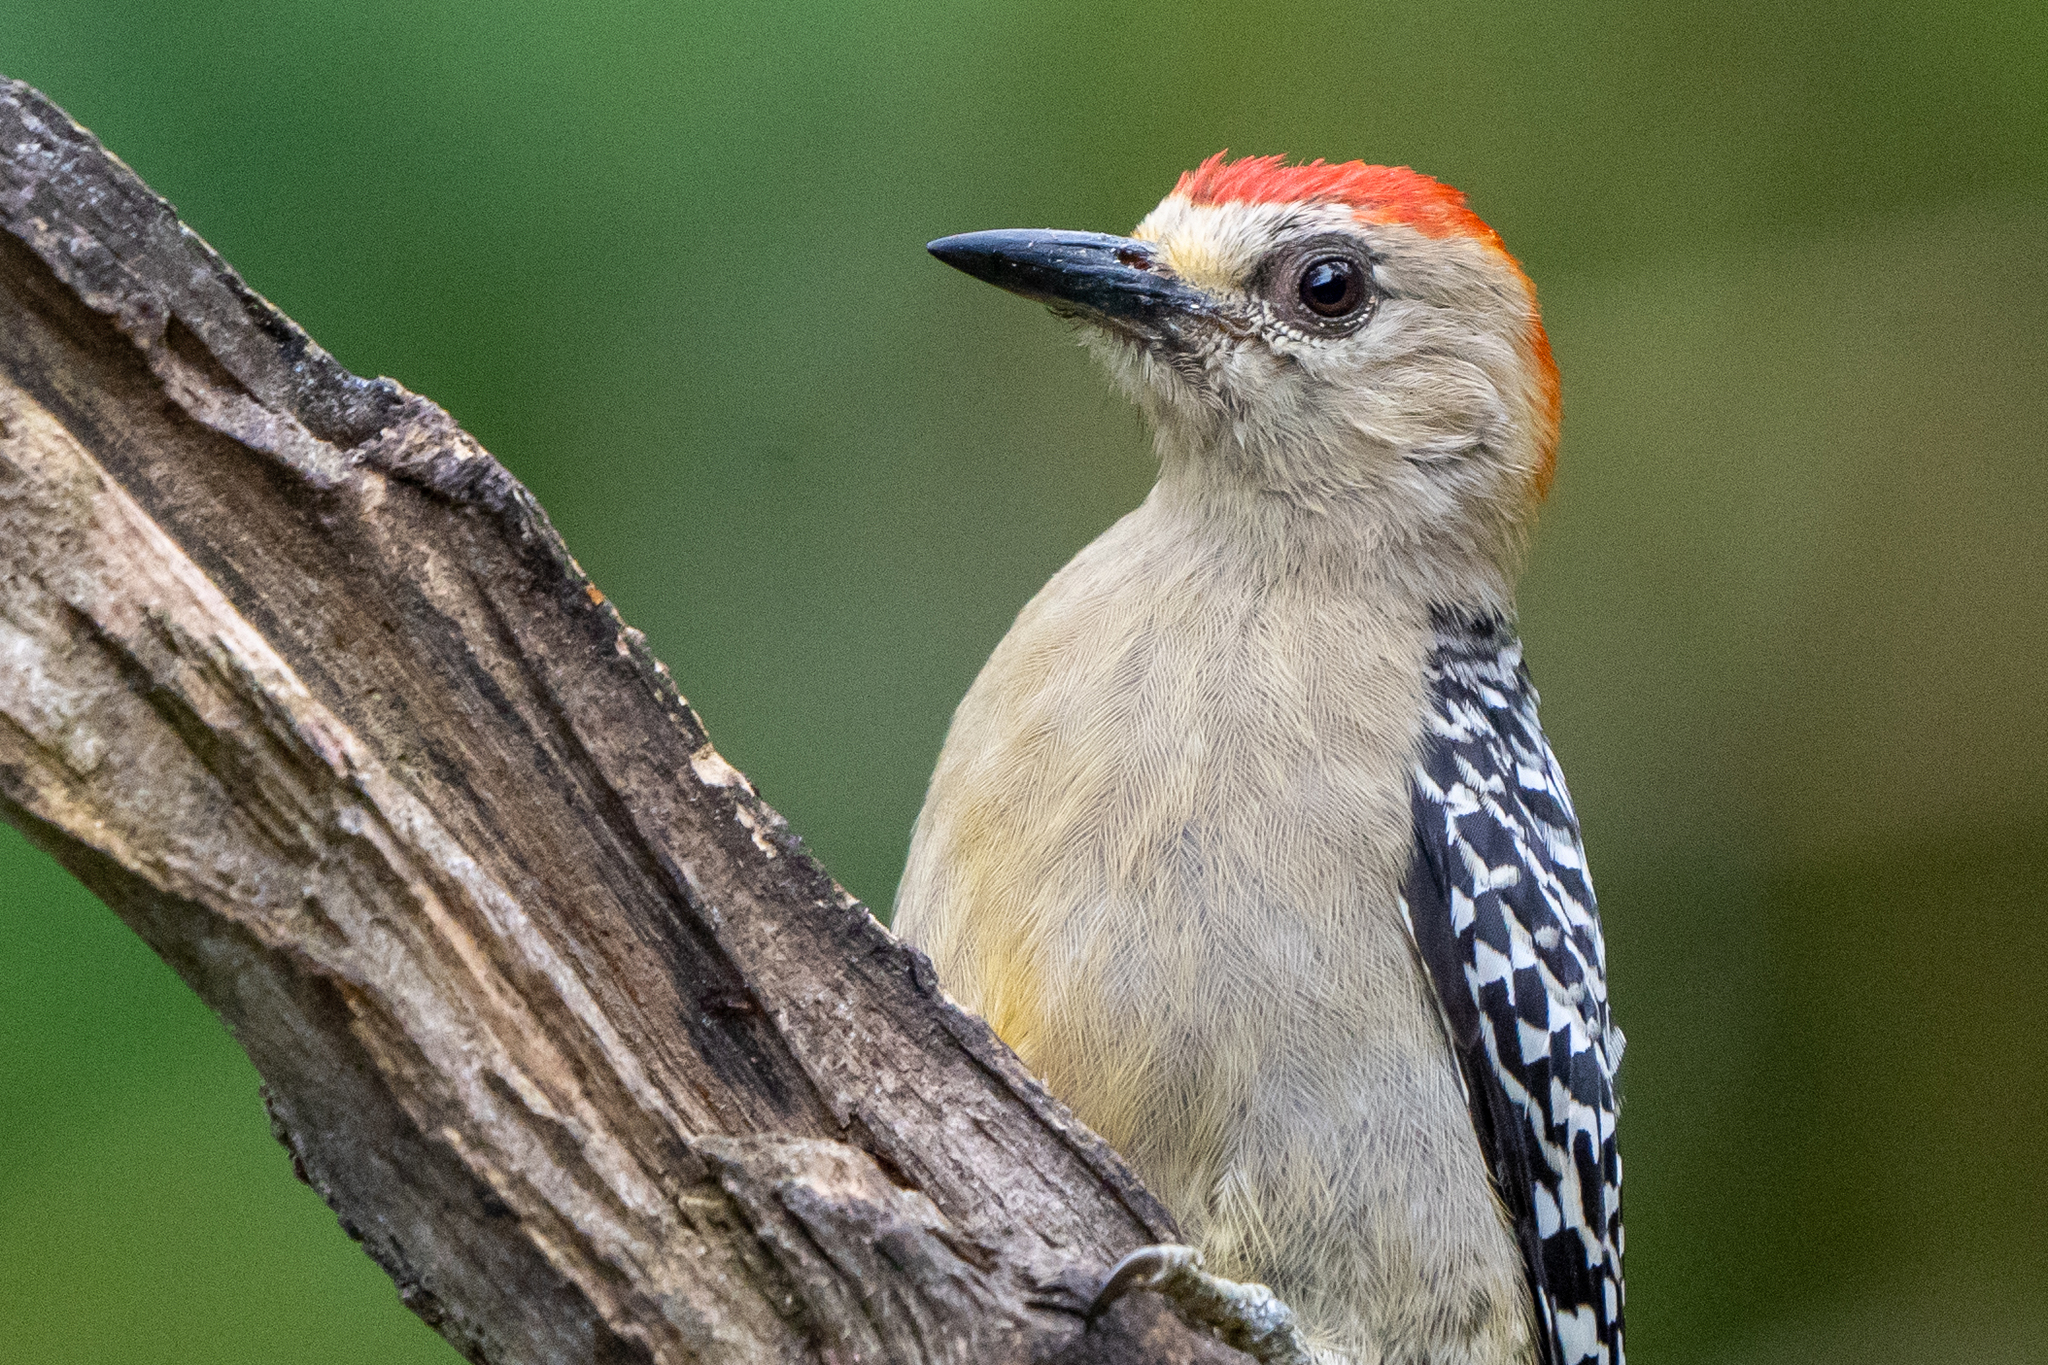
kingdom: Animalia
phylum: Chordata
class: Aves
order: Piciformes
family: Picidae
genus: Melanerpes
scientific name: Melanerpes rubricapillus
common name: Red-crowned woodpecker
